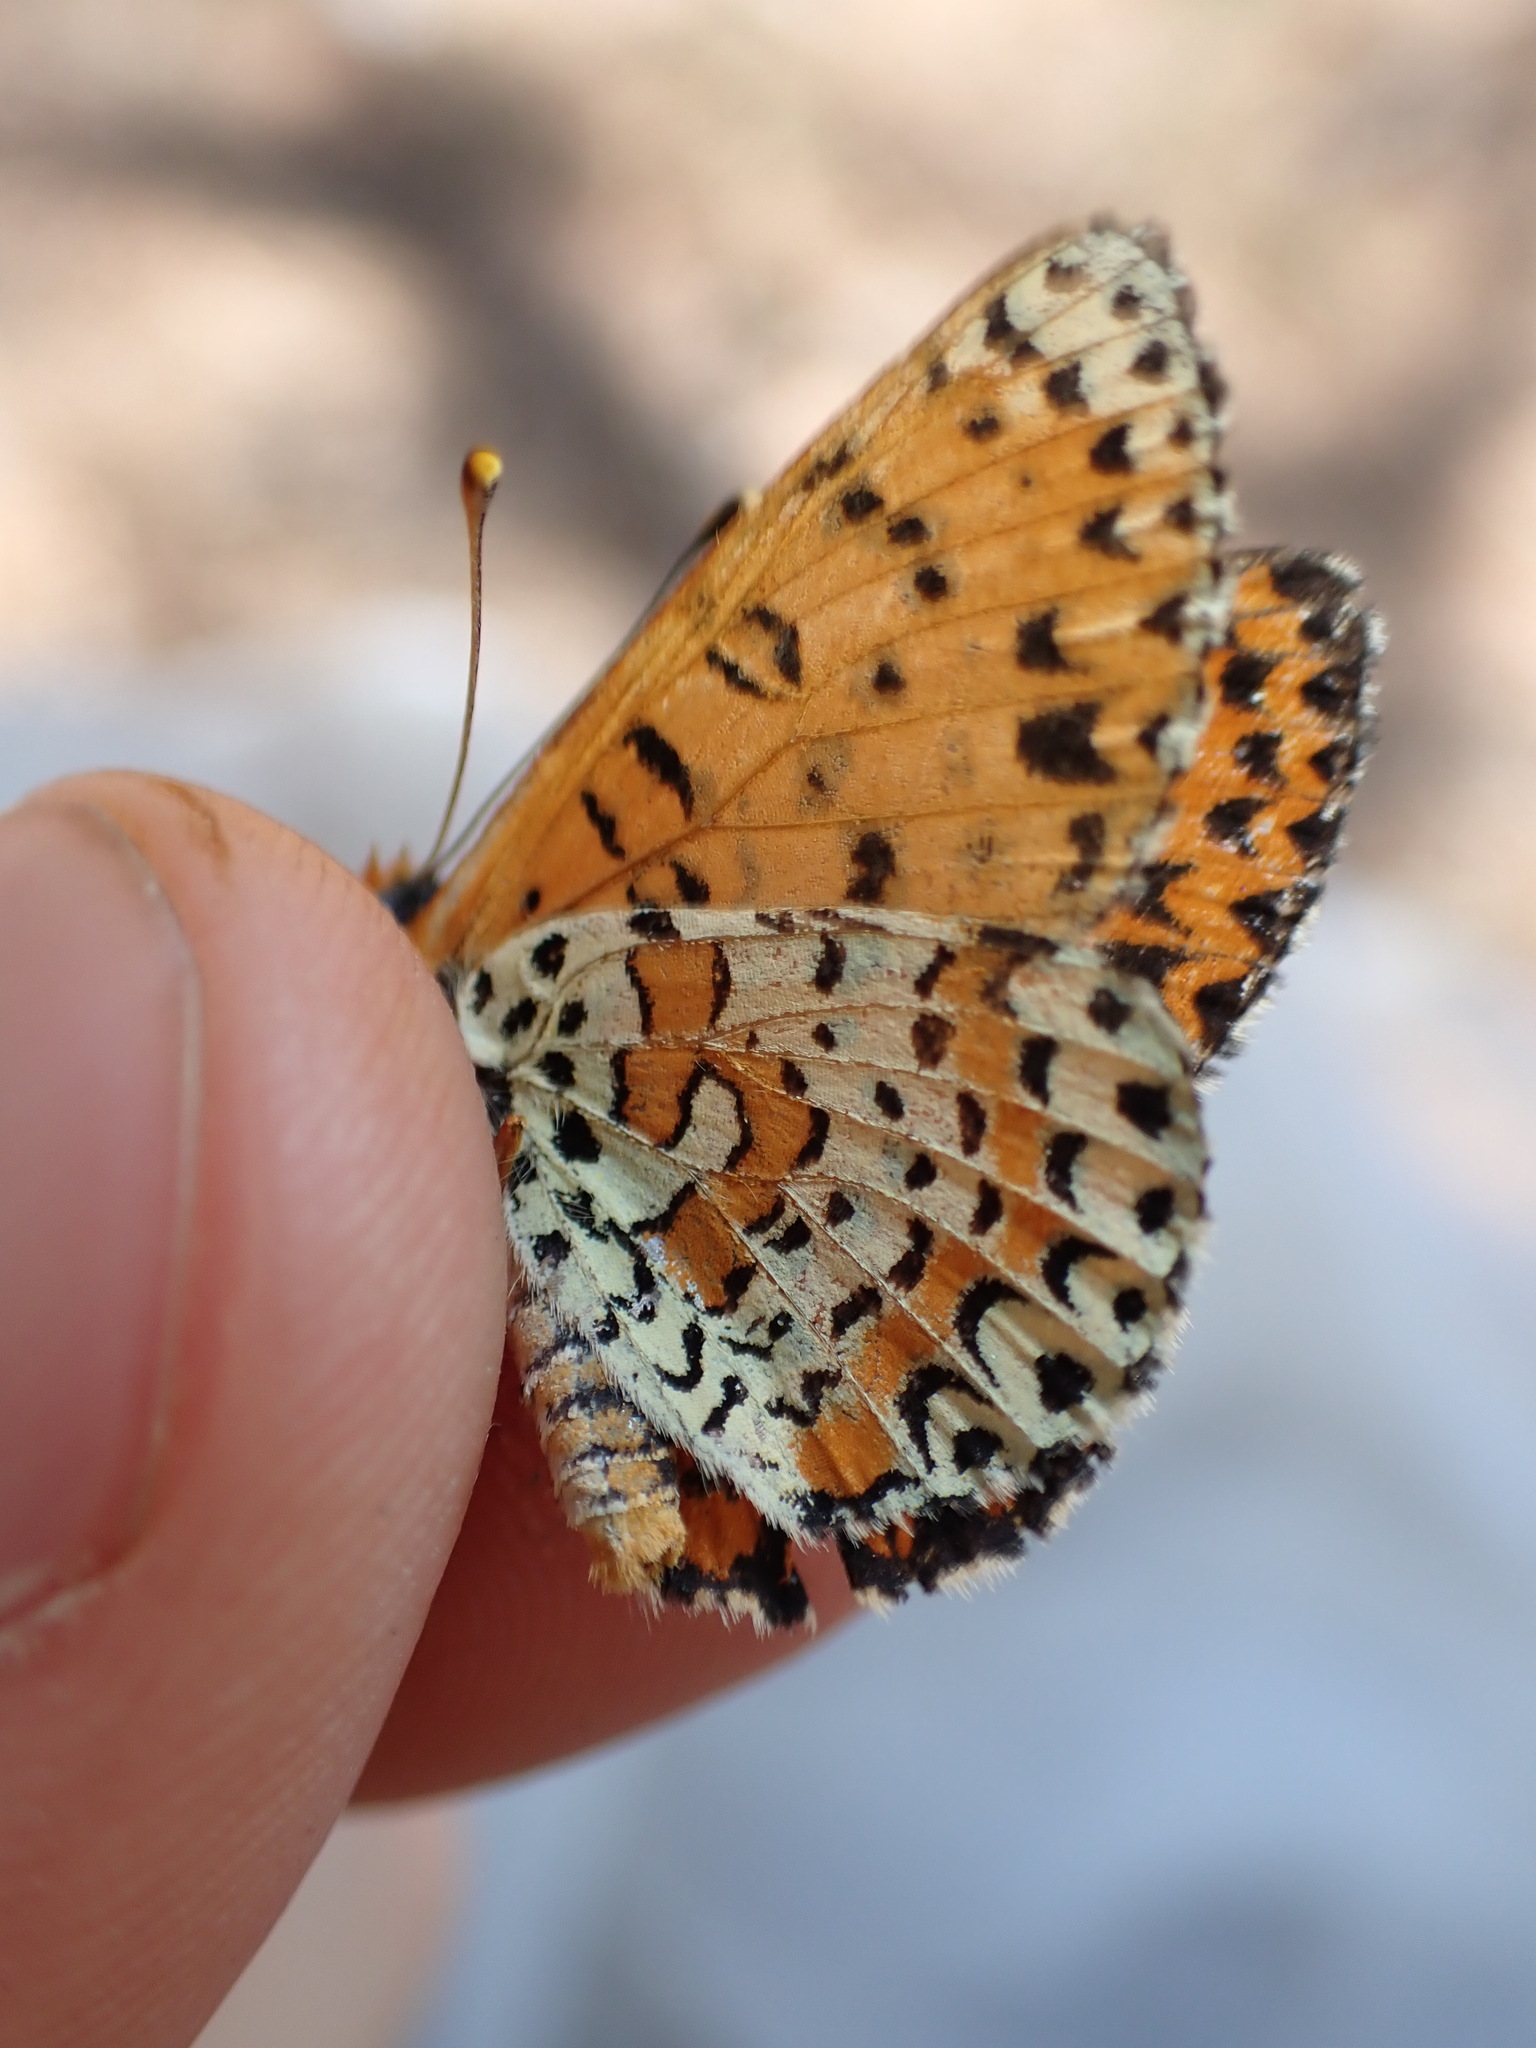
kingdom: Animalia
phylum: Arthropoda
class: Insecta
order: Lepidoptera
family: Nymphalidae
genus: Melitaea
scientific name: Melitaea didyma
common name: Spotted fritillary
